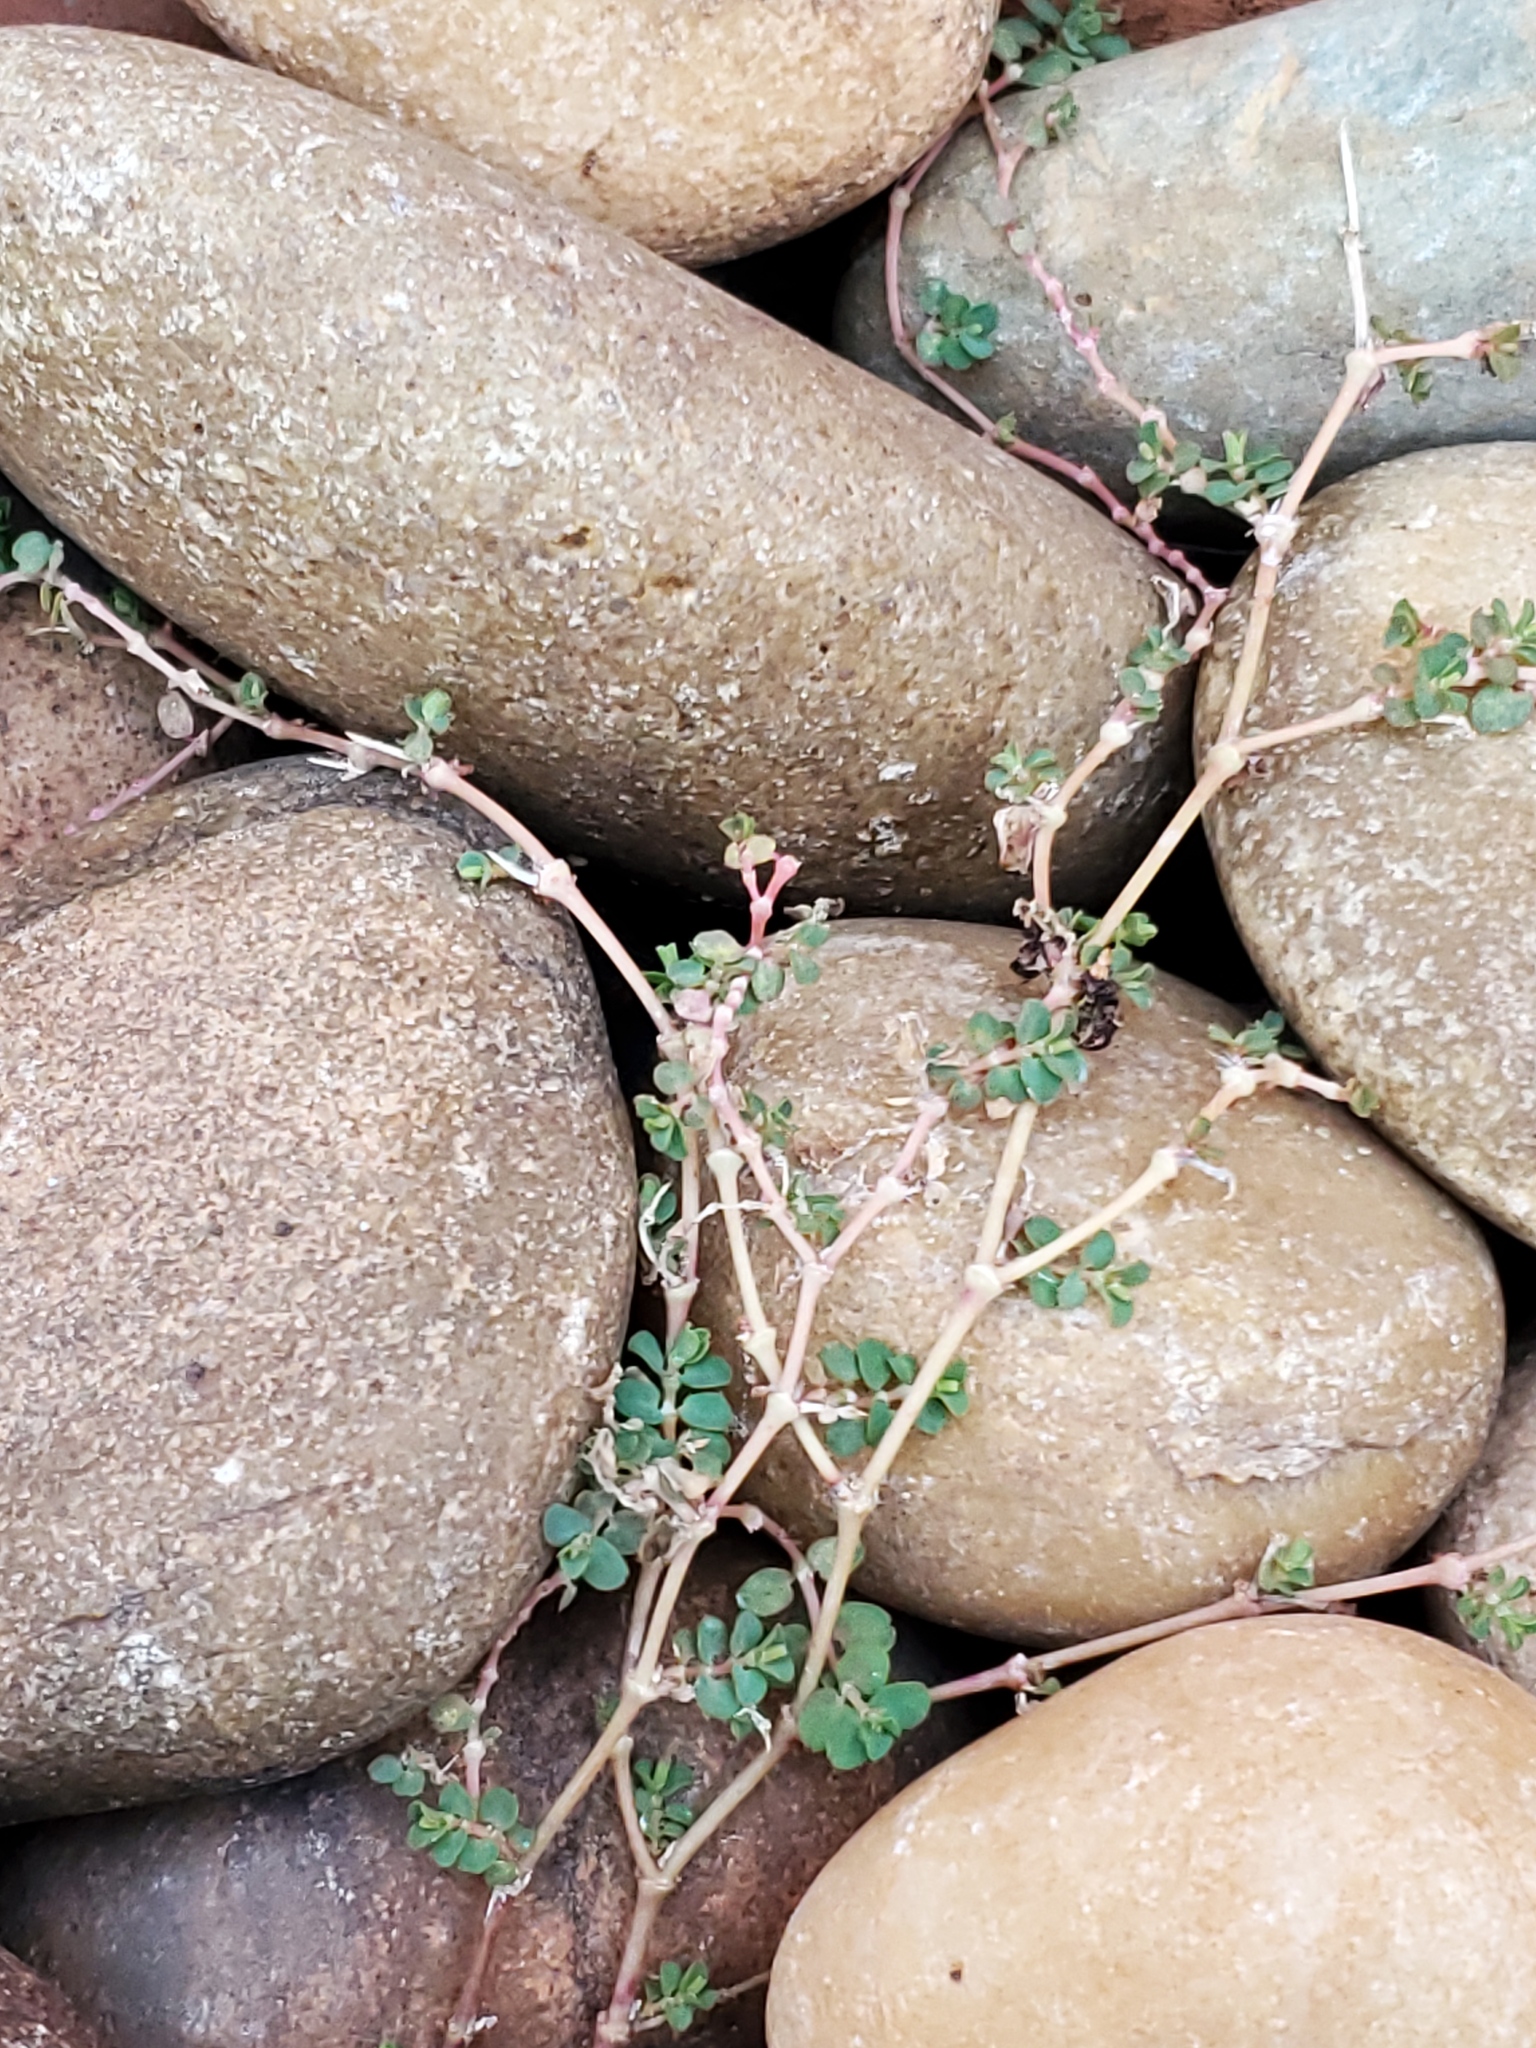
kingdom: Plantae
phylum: Tracheophyta
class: Magnoliopsida
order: Malpighiales
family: Euphorbiaceae
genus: Euphorbia
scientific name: Euphorbia serpens
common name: Matted sandmat
